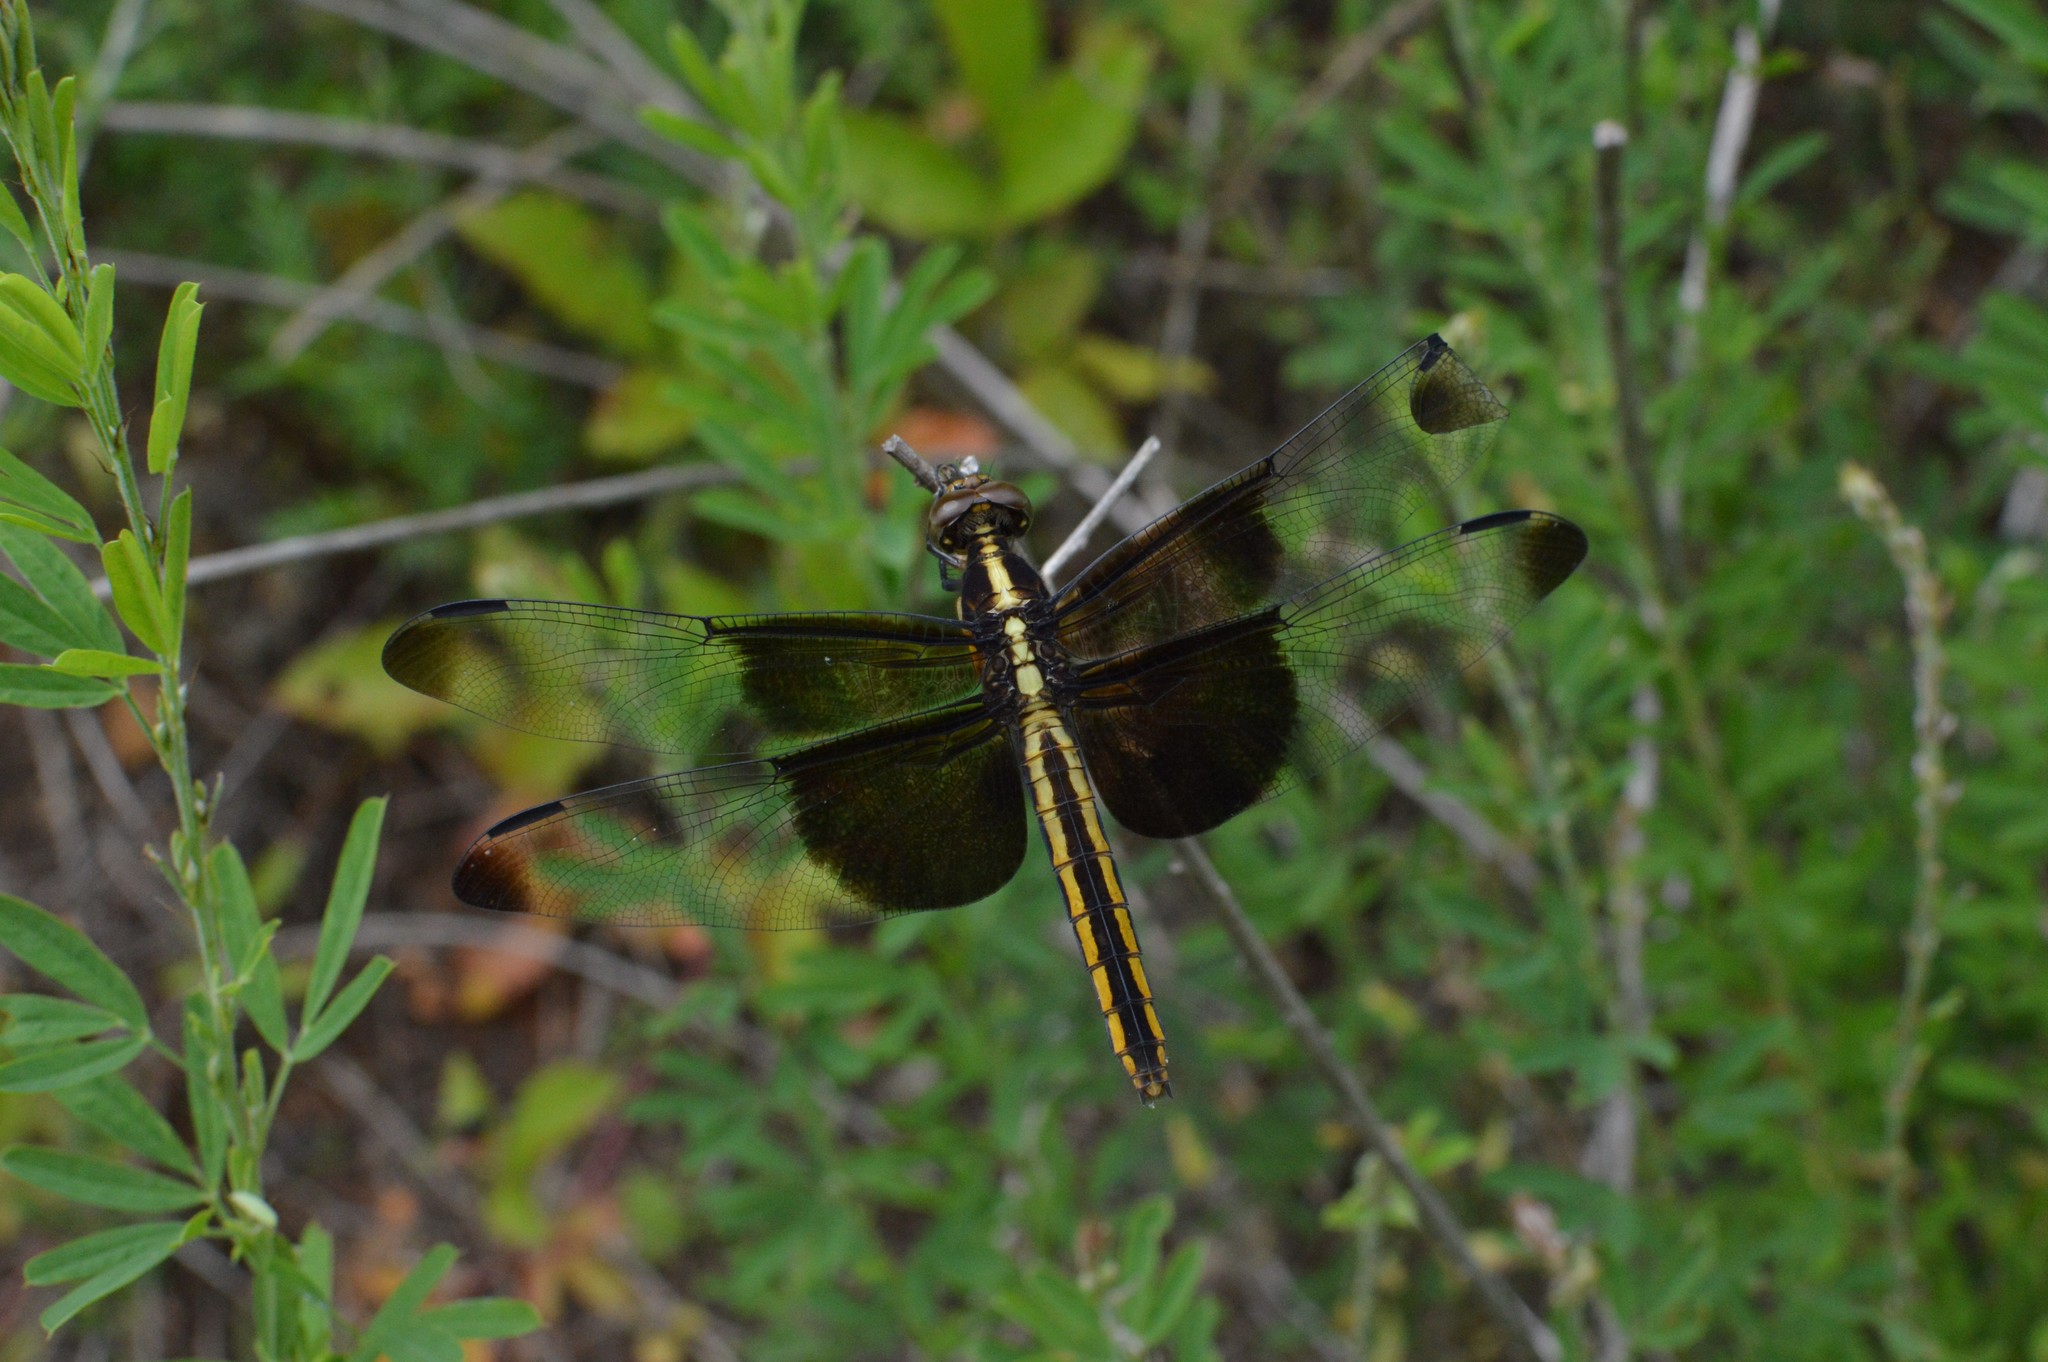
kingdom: Animalia
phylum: Arthropoda
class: Insecta
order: Odonata
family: Libellulidae
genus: Libellula
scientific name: Libellula luctuosa
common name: Widow skimmer
